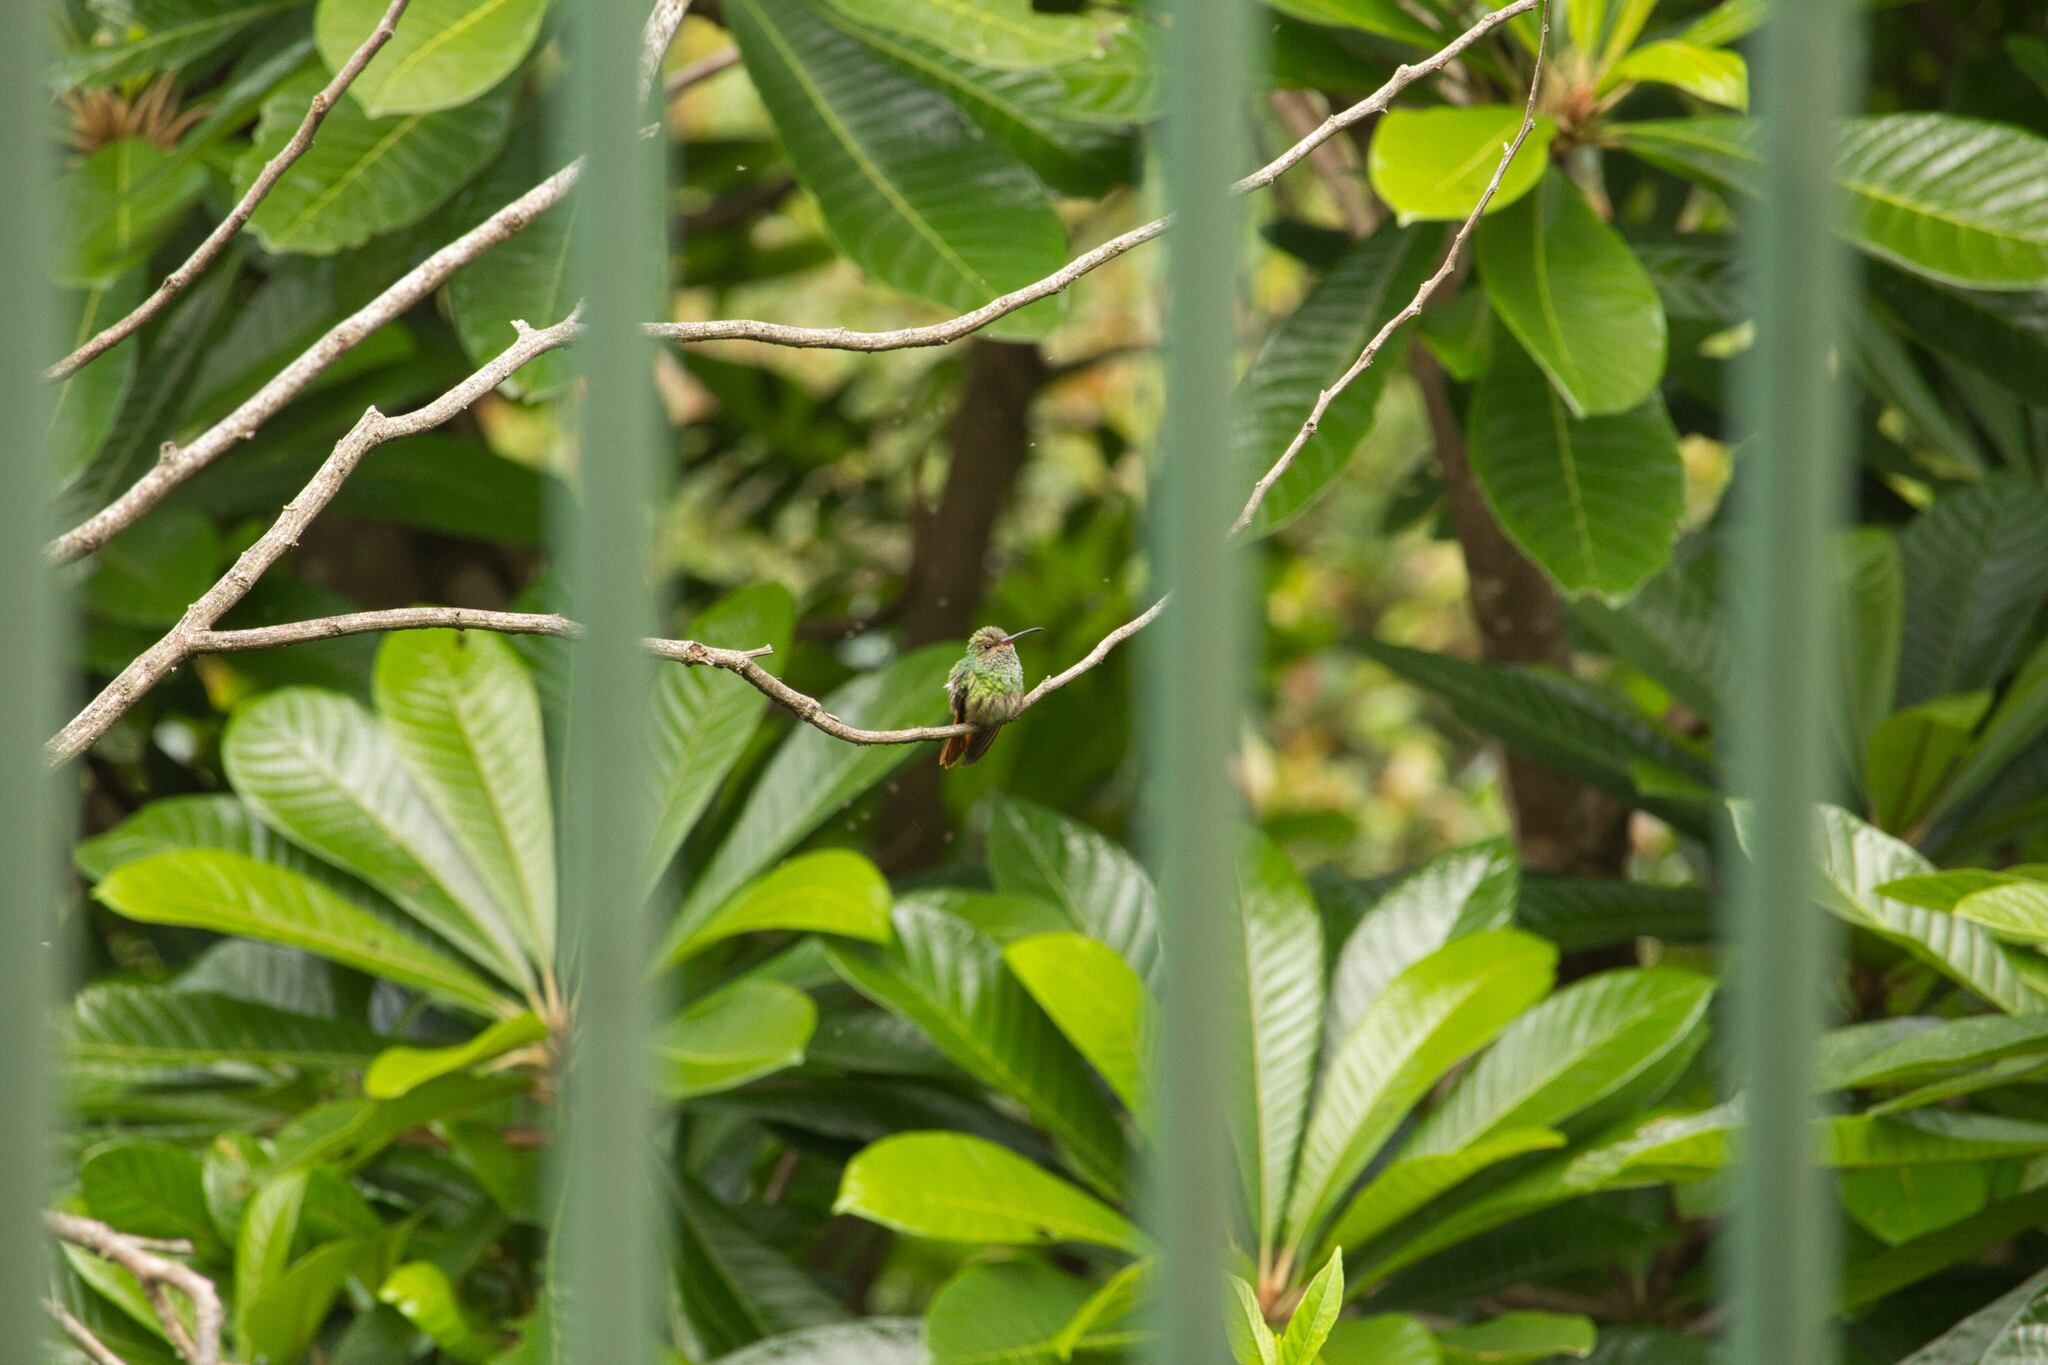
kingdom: Animalia
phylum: Chordata
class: Aves
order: Apodiformes
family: Trochilidae
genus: Amazilia
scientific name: Amazilia tzacatl
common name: Rufous-tailed hummingbird
